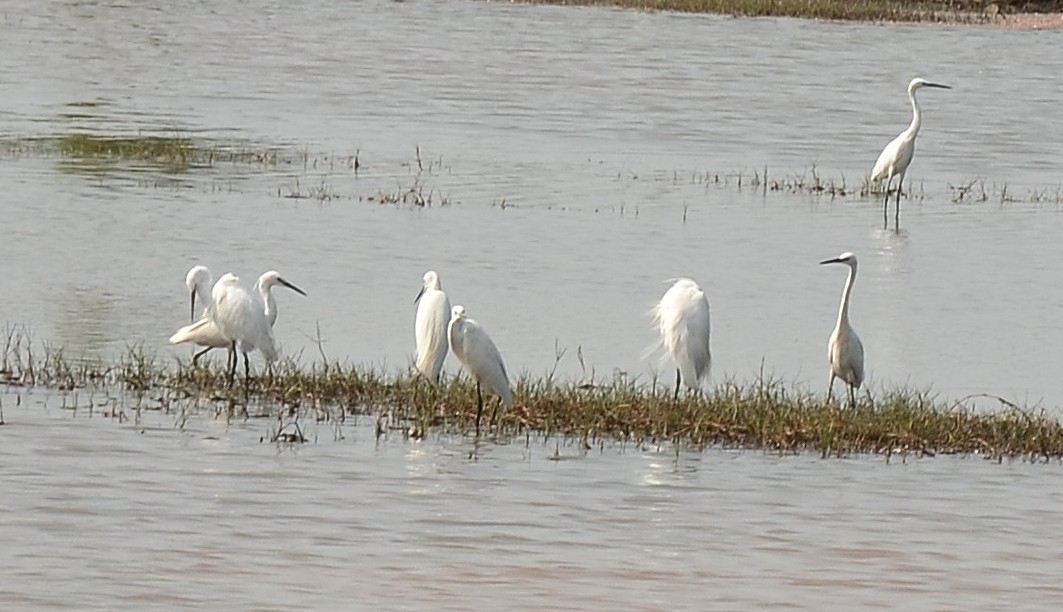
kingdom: Animalia
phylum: Chordata
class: Aves
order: Pelecaniformes
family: Ardeidae
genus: Egretta
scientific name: Egretta garzetta
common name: Little egret
